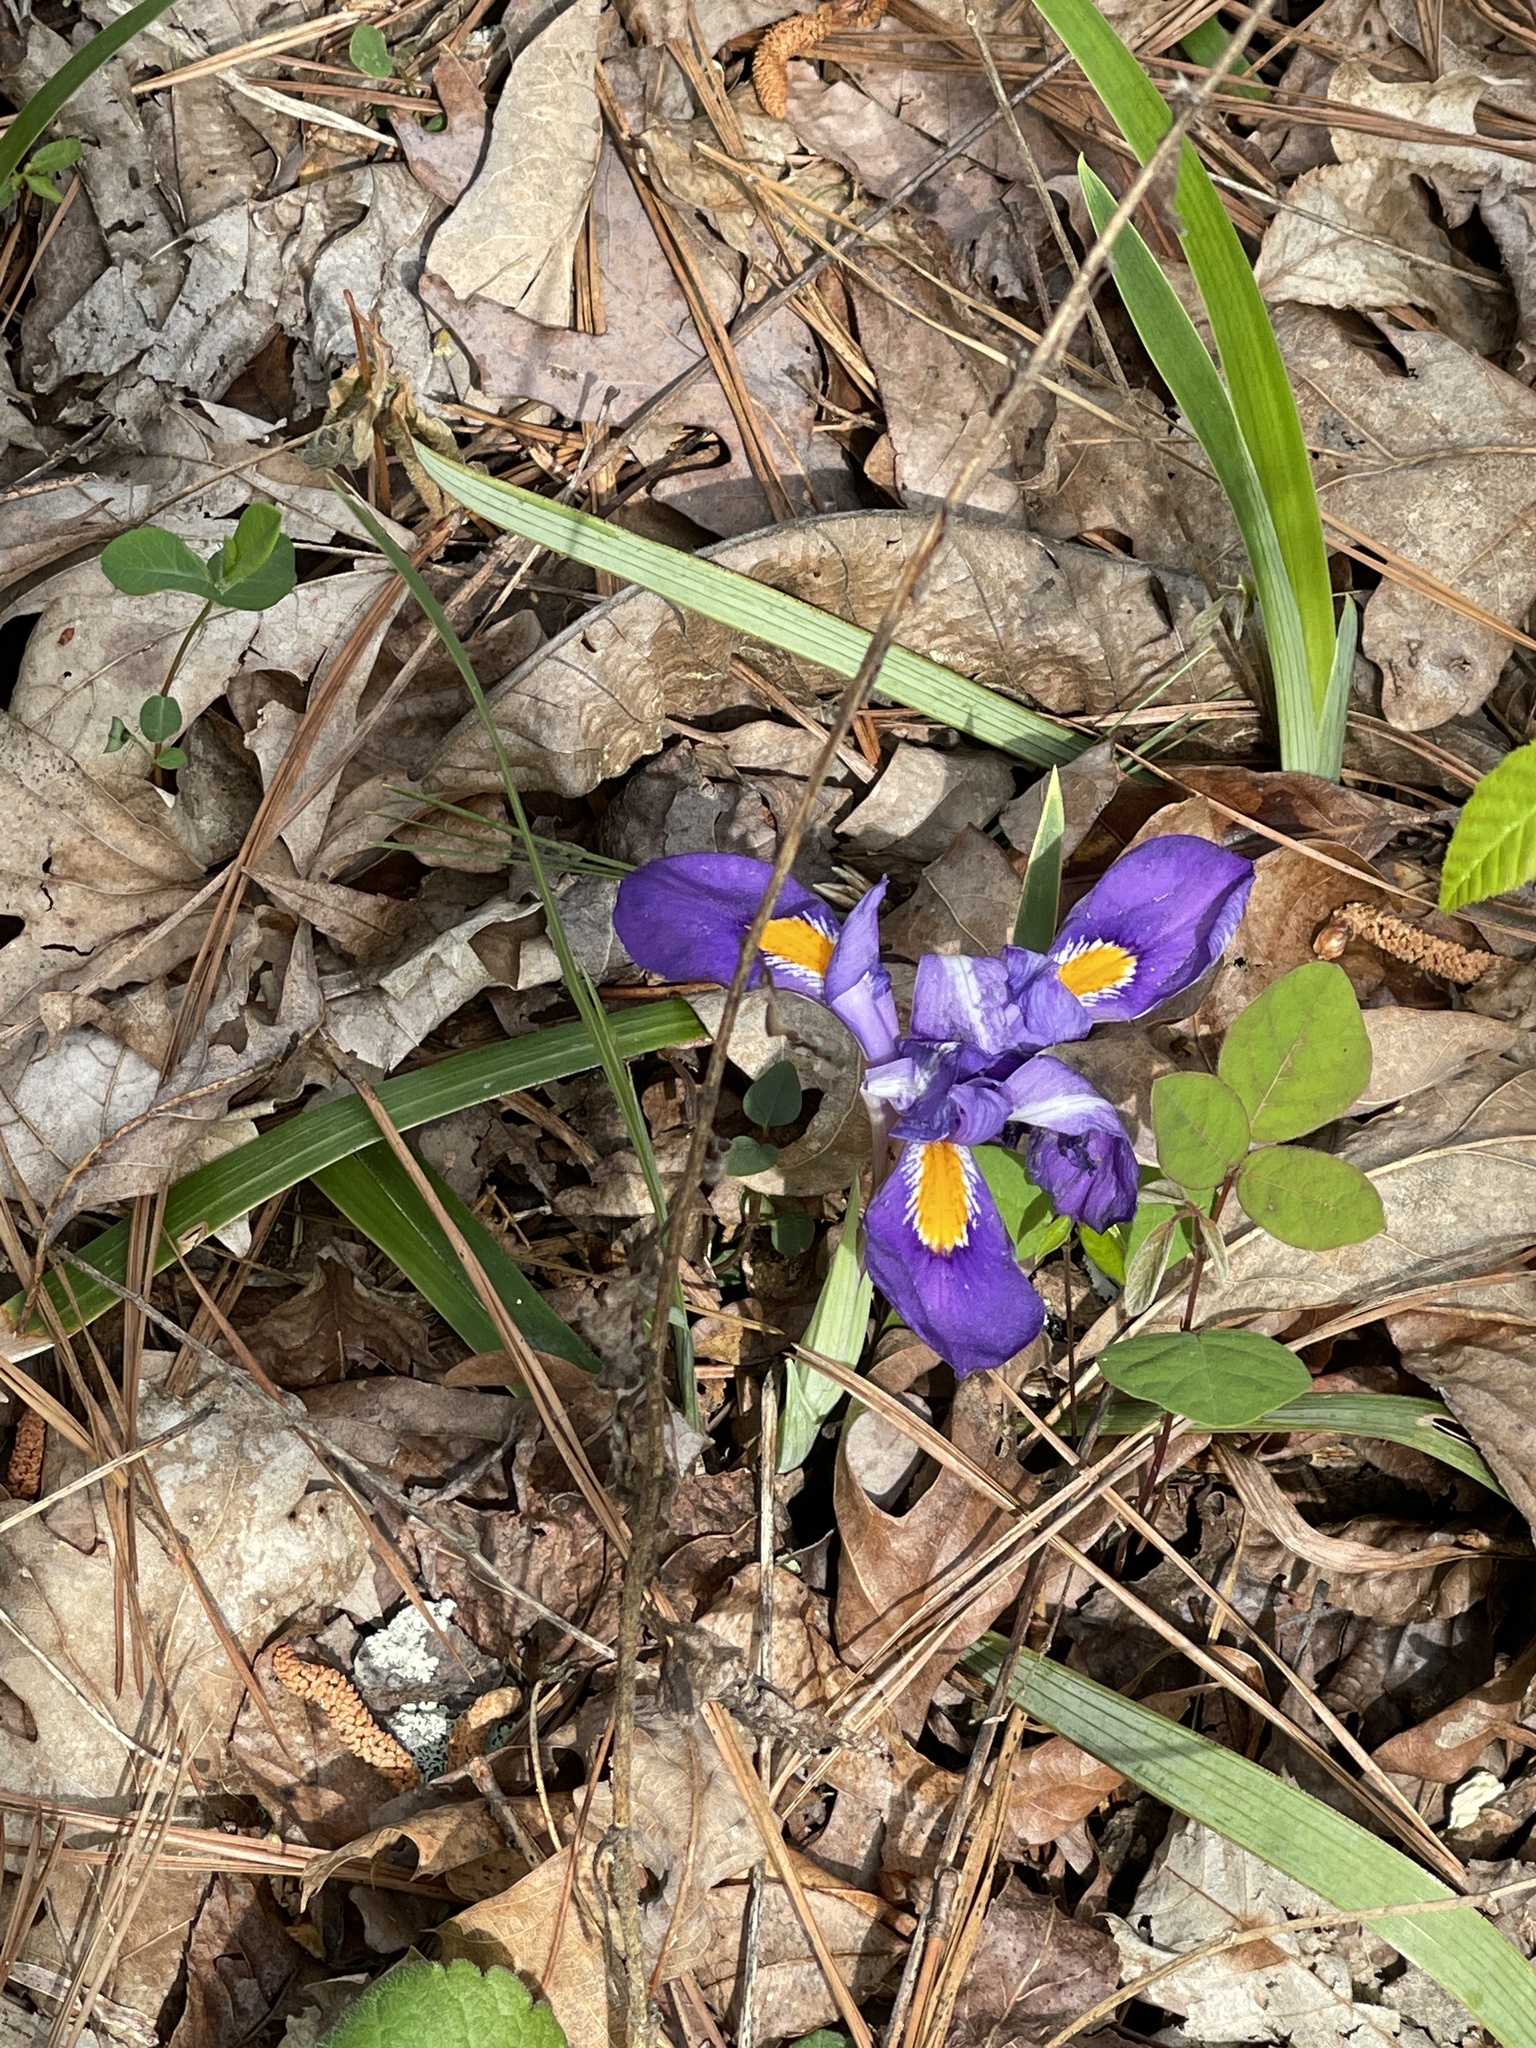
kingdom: Plantae
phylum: Tracheophyta
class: Liliopsida
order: Asparagales
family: Iridaceae
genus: Iris
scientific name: Iris verna
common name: Dwarf iris
